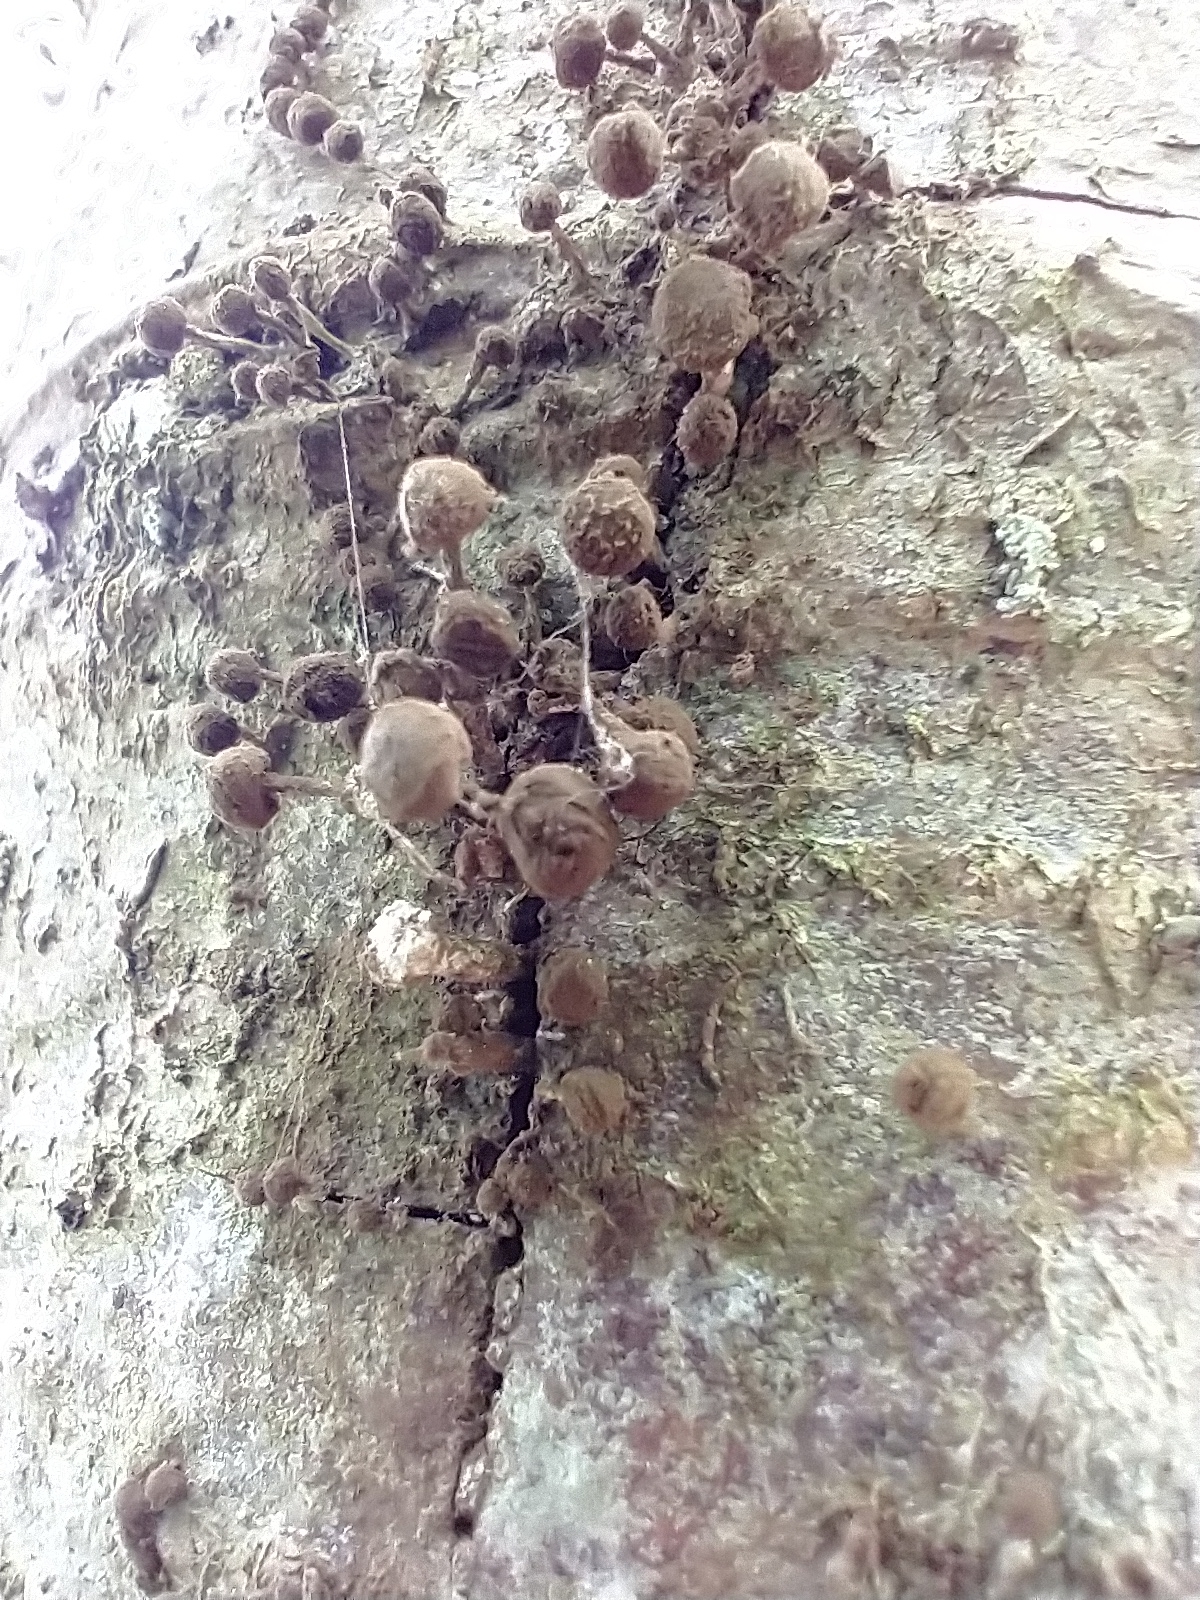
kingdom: Fungi
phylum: Basidiomycota
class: Atractiellomycetes
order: Atractiellales
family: Phleogenaceae
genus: Phleogena
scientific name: Phleogena faginea
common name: Fenugreek stalkball
